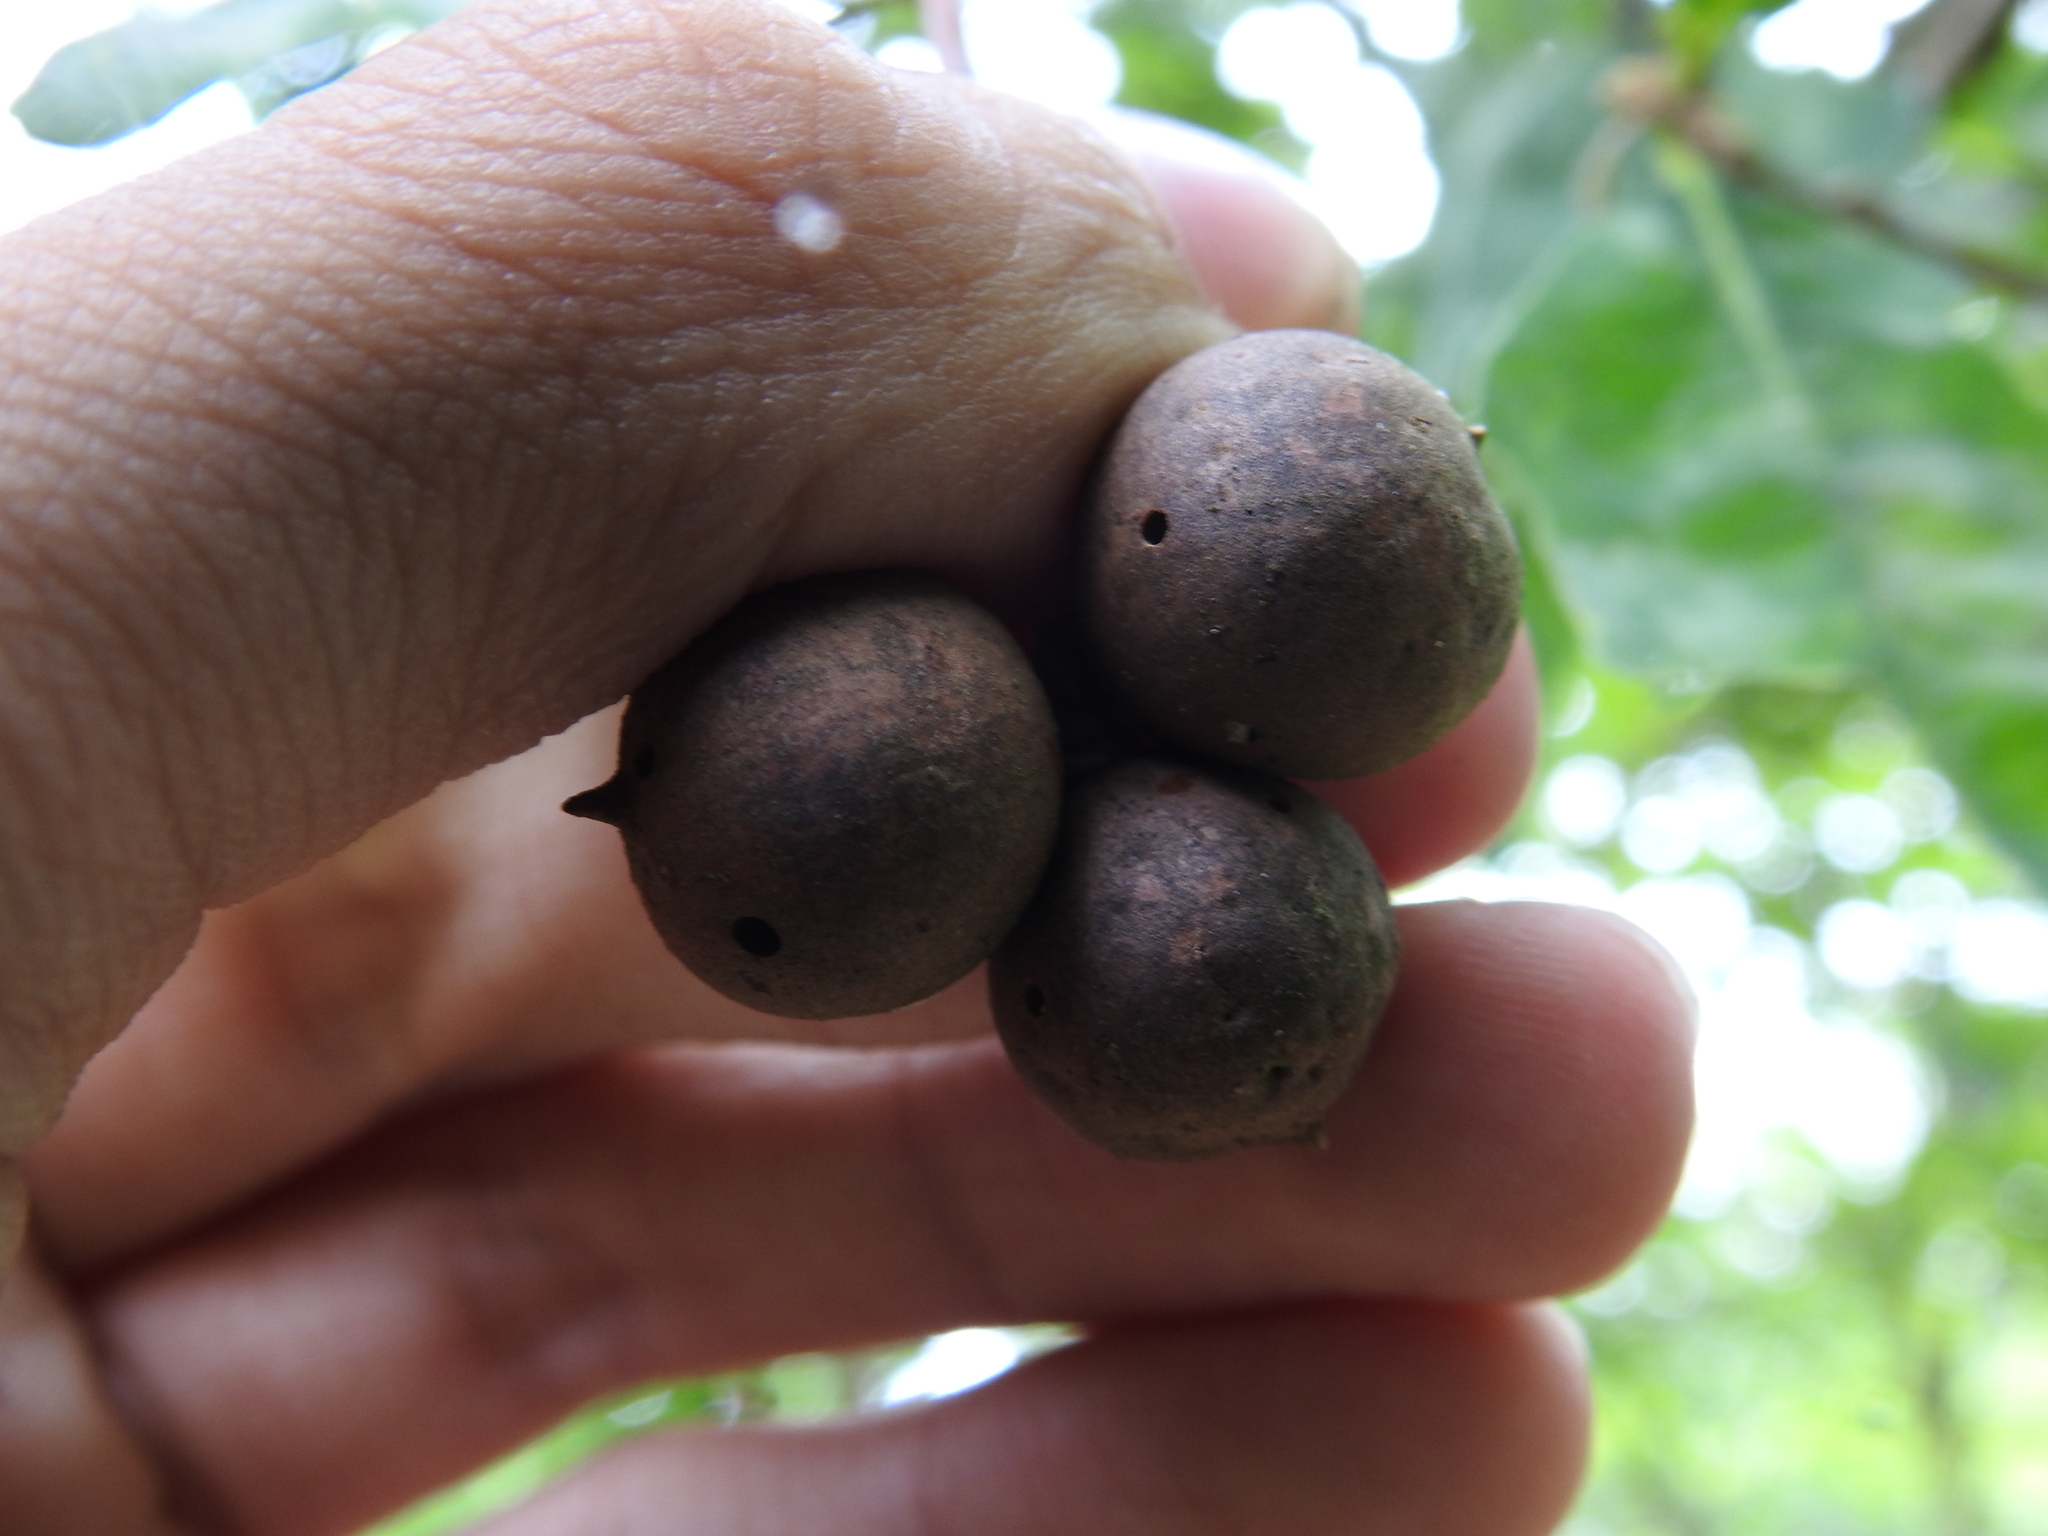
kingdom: Animalia
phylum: Arthropoda
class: Insecta
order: Hymenoptera
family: Cynipidae
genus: Andricus
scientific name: Andricus kollari
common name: Marble gall
